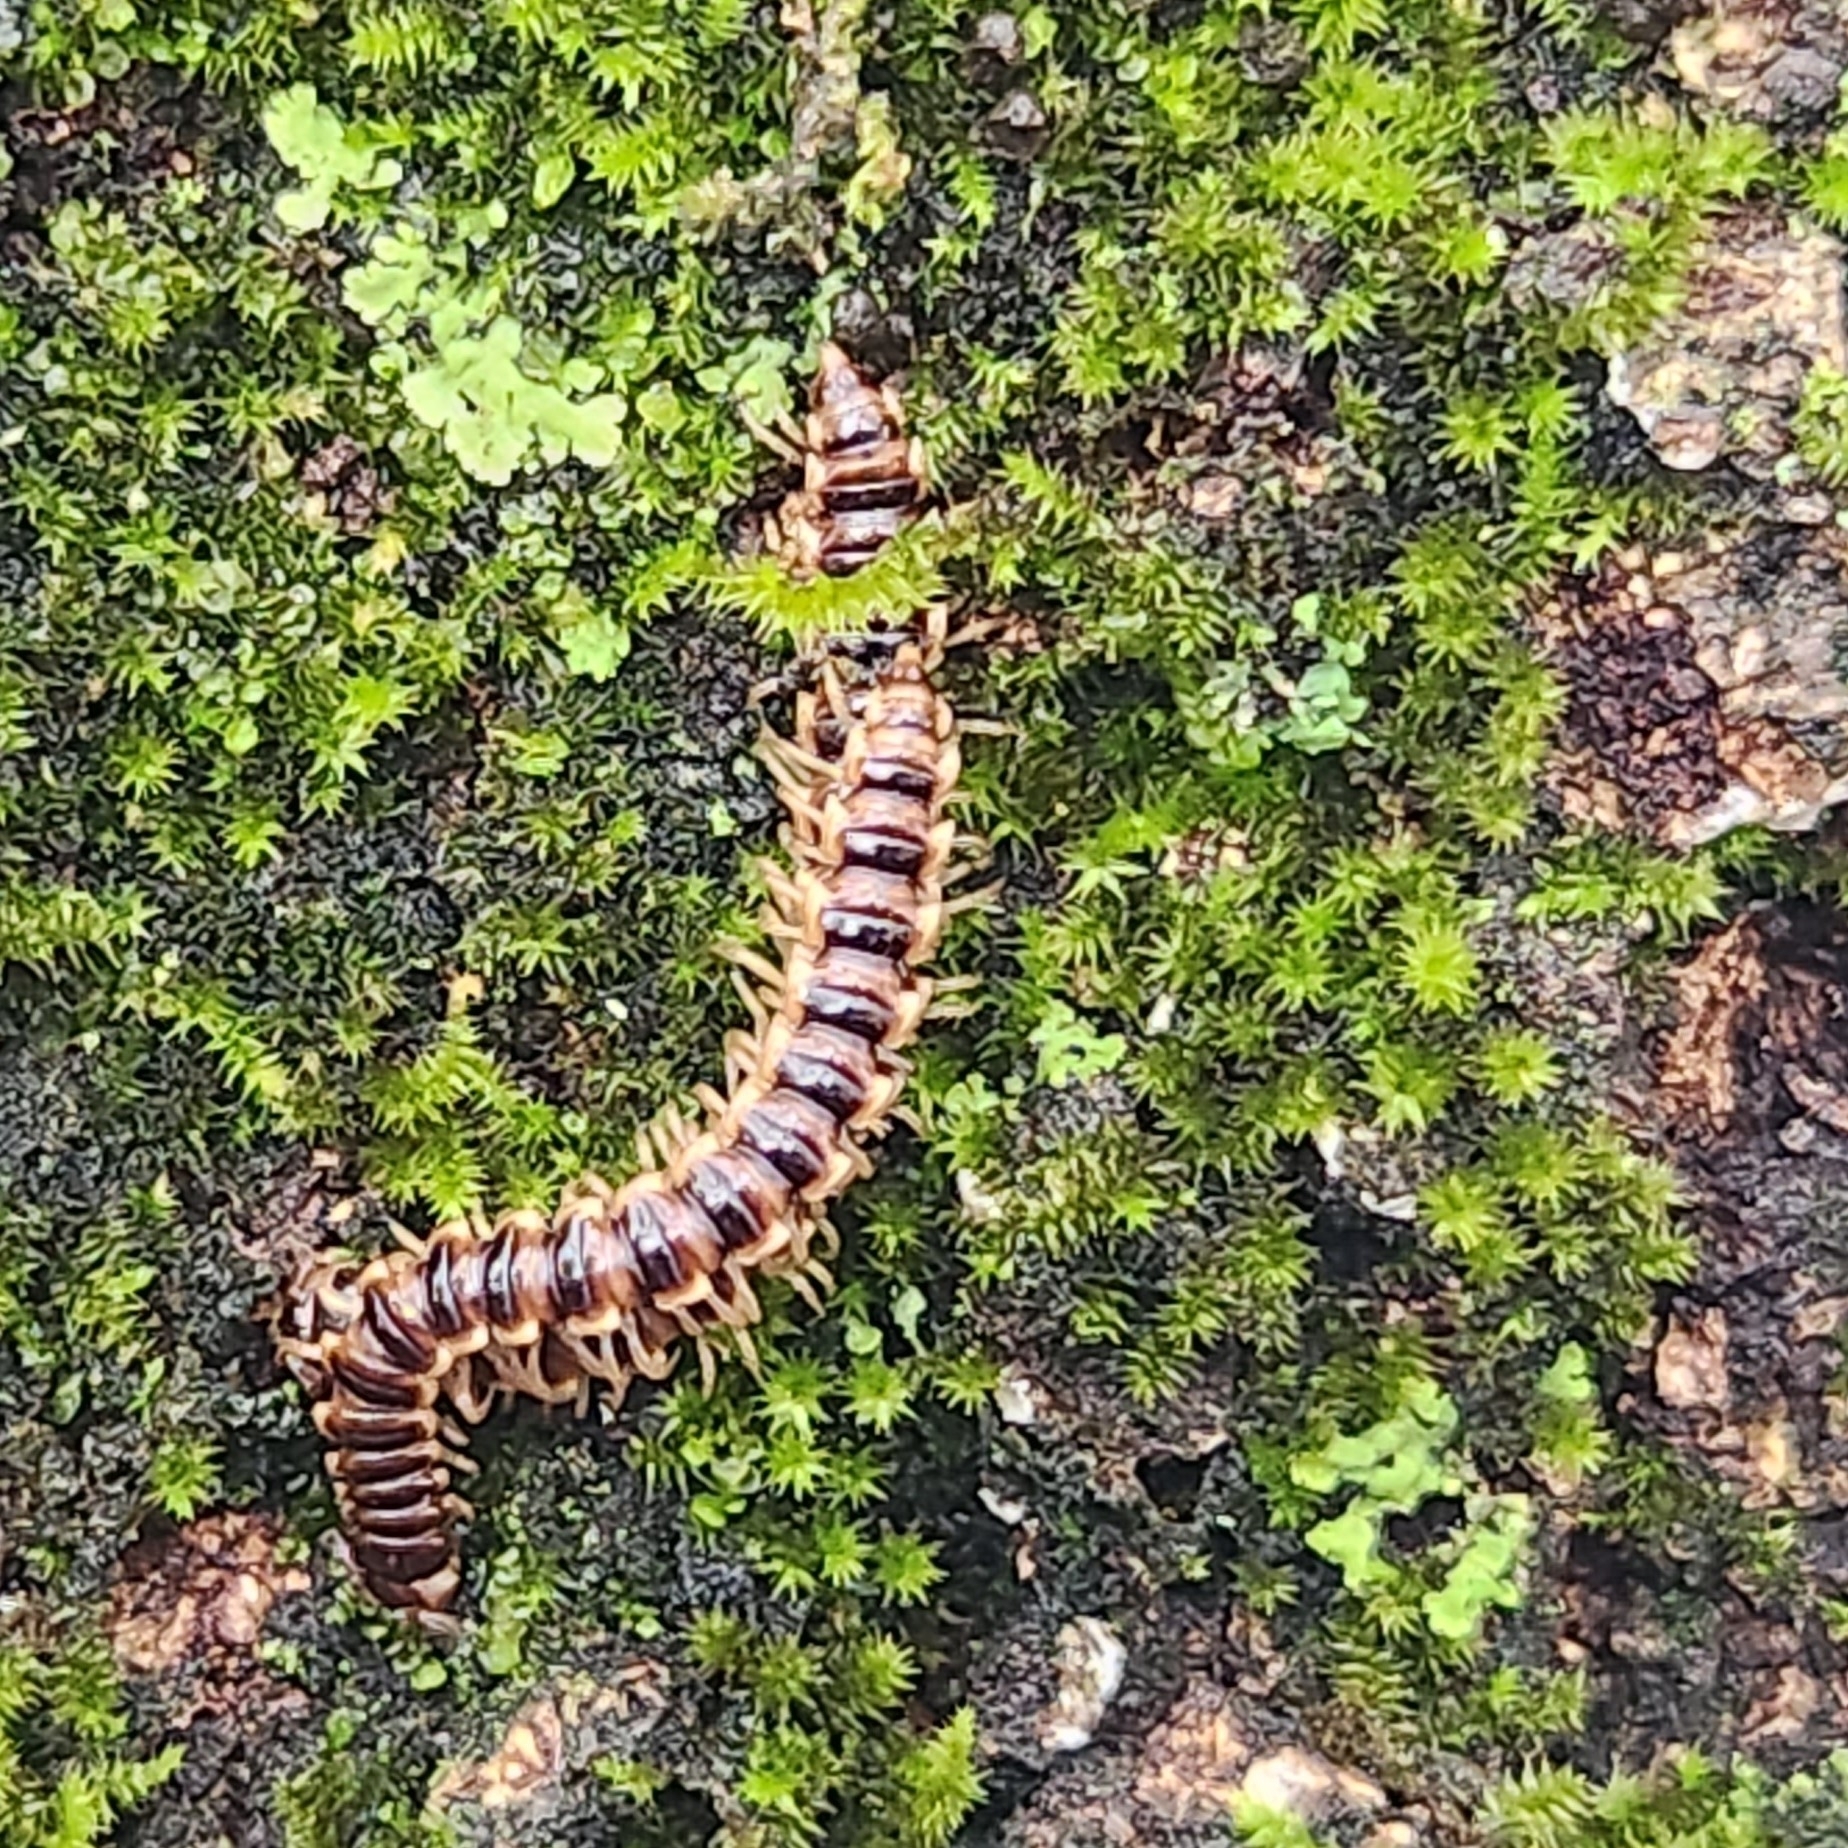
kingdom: Animalia
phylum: Arthropoda
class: Diplopoda
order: Polydesmida
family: Paradoxosomatidae
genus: Oxidus
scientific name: Oxidus gracilis
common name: Greenhouse millipede
